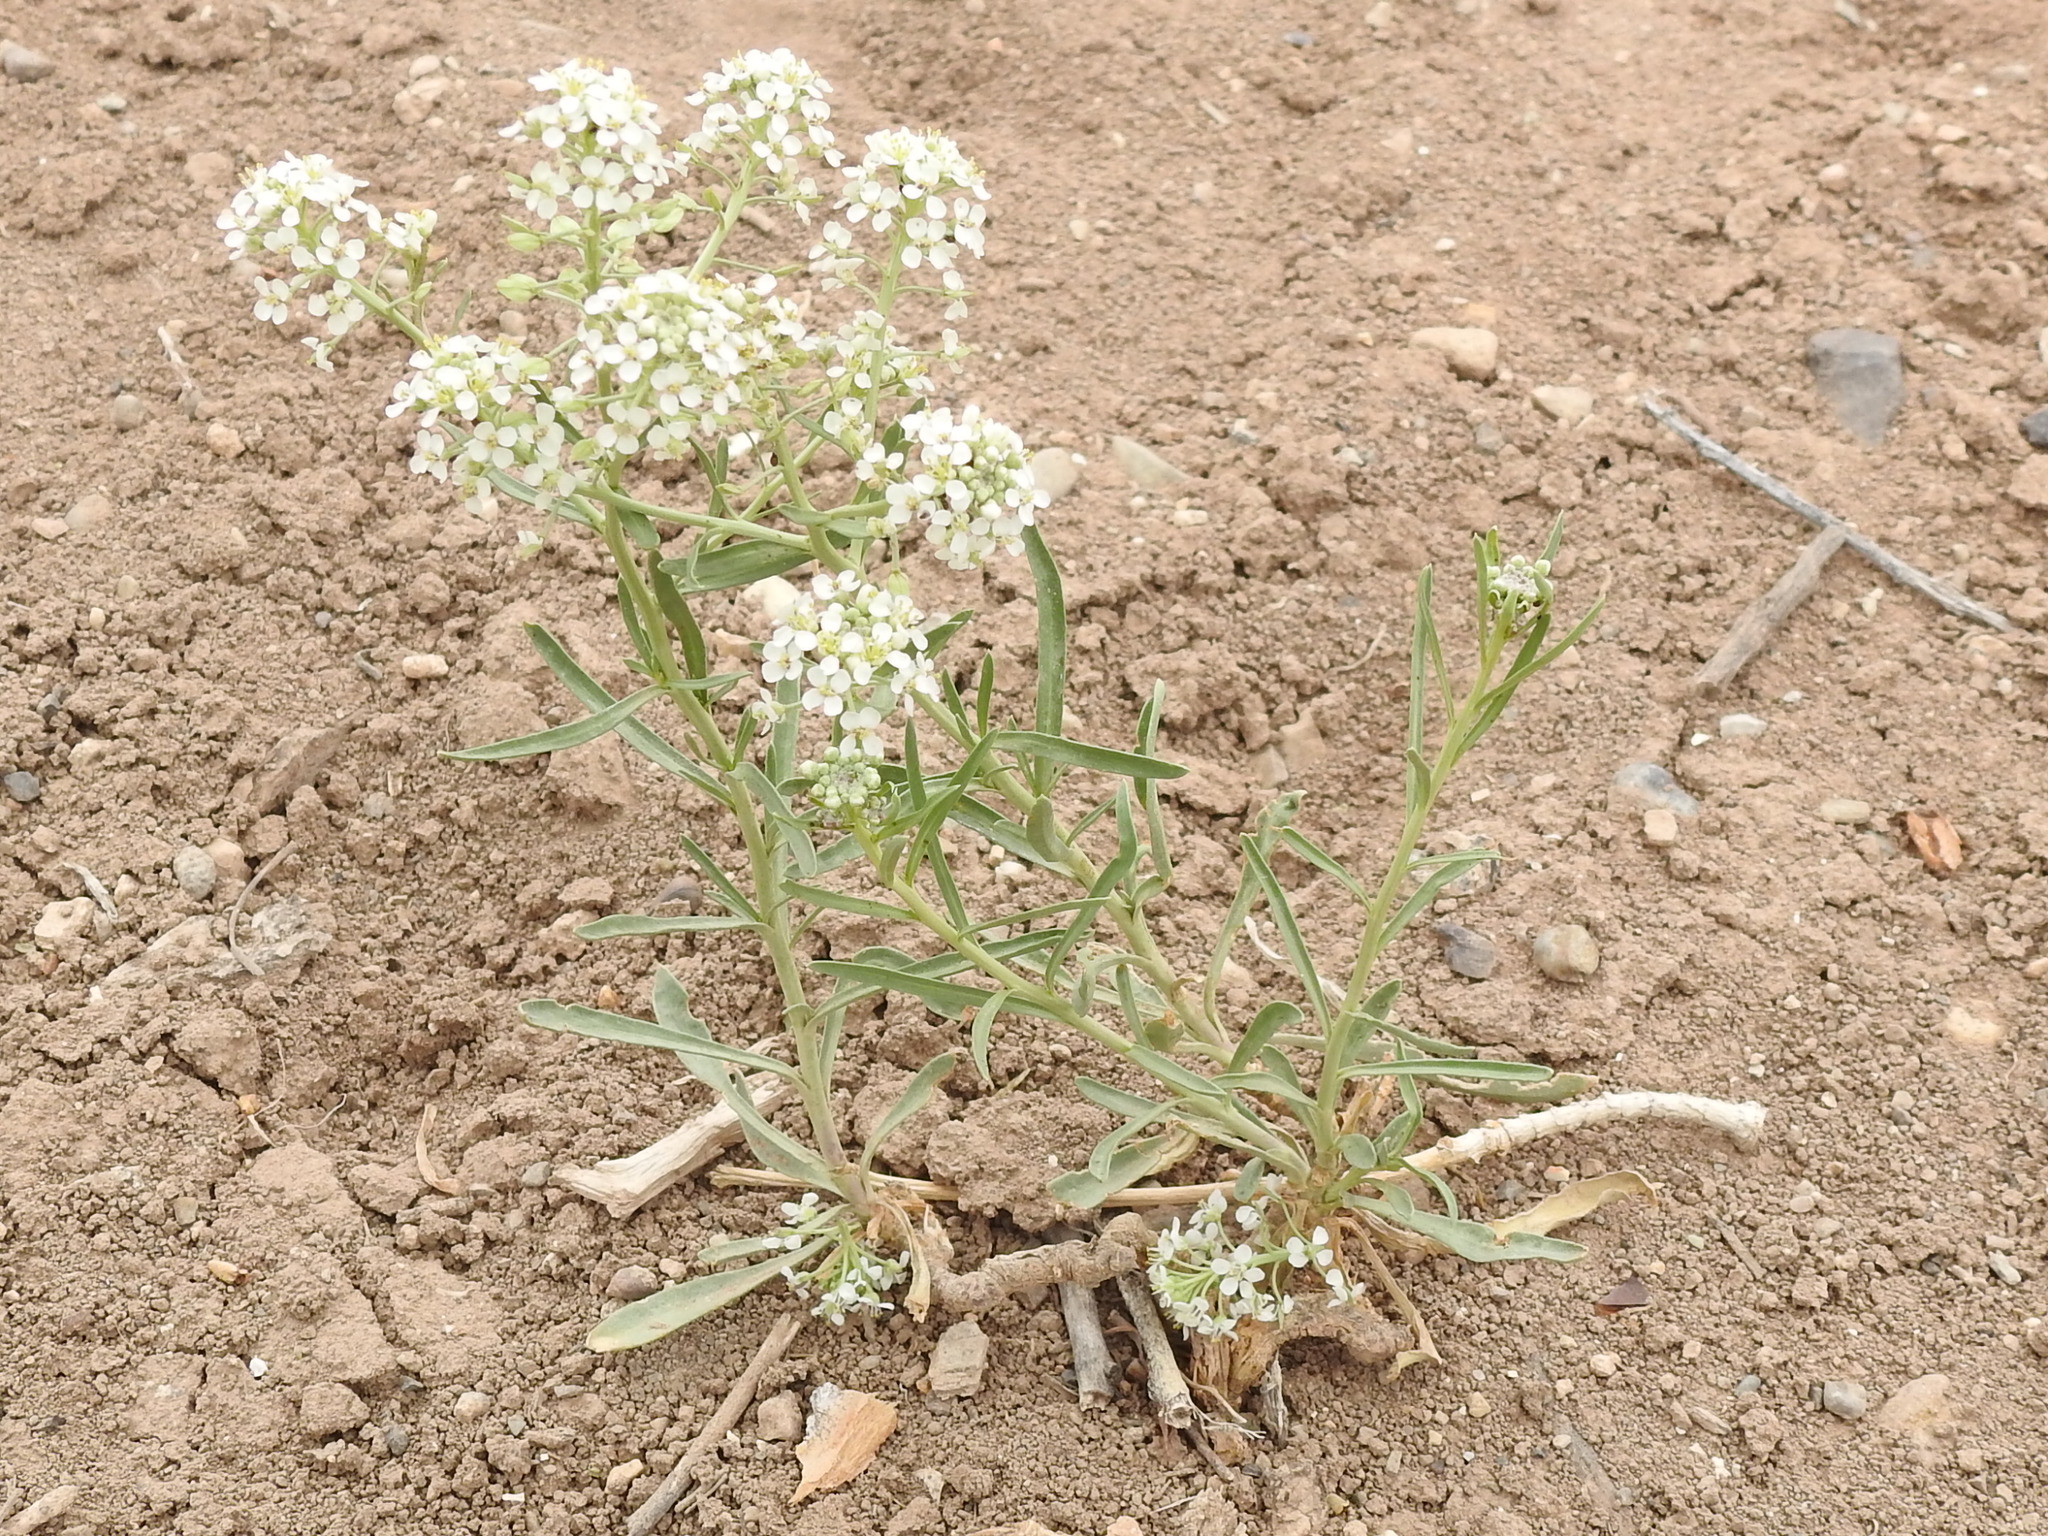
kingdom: Plantae
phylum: Tracheophyta
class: Magnoliopsida
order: Brassicales
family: Brassicaceae
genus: Lepidium
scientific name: Lepidium alyssoides
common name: Mesa pepperweed
